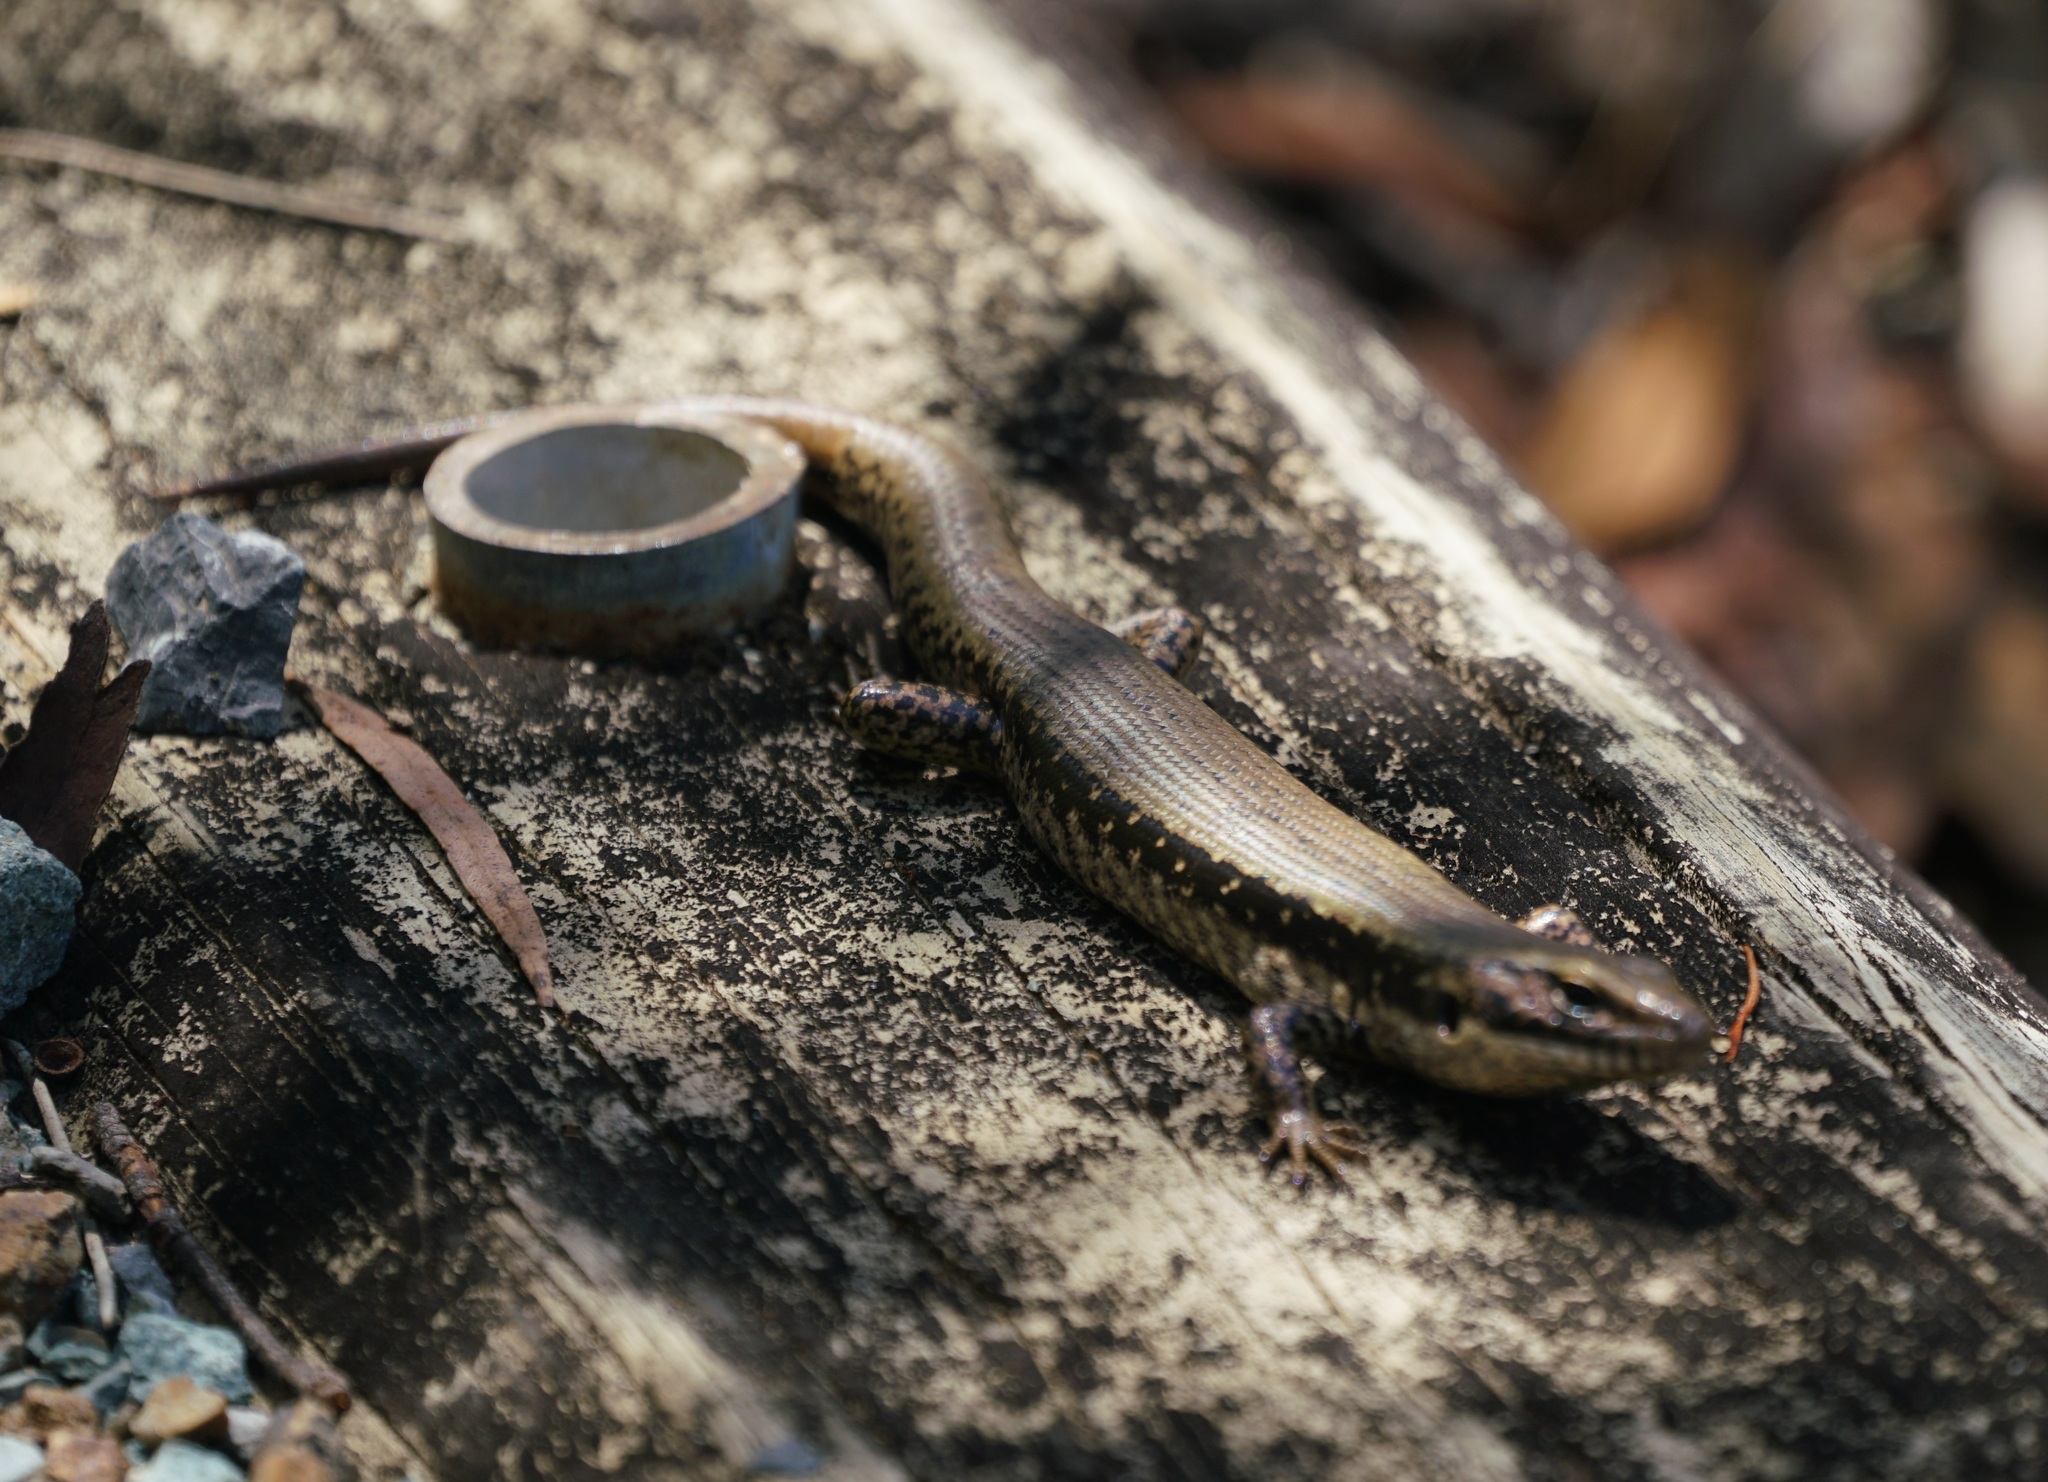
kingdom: Animalia
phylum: Chordata
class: Squamata
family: Scincidae
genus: Eulamprus
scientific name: Eulamprus heatwolei
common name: Warm-temperate water-skink
